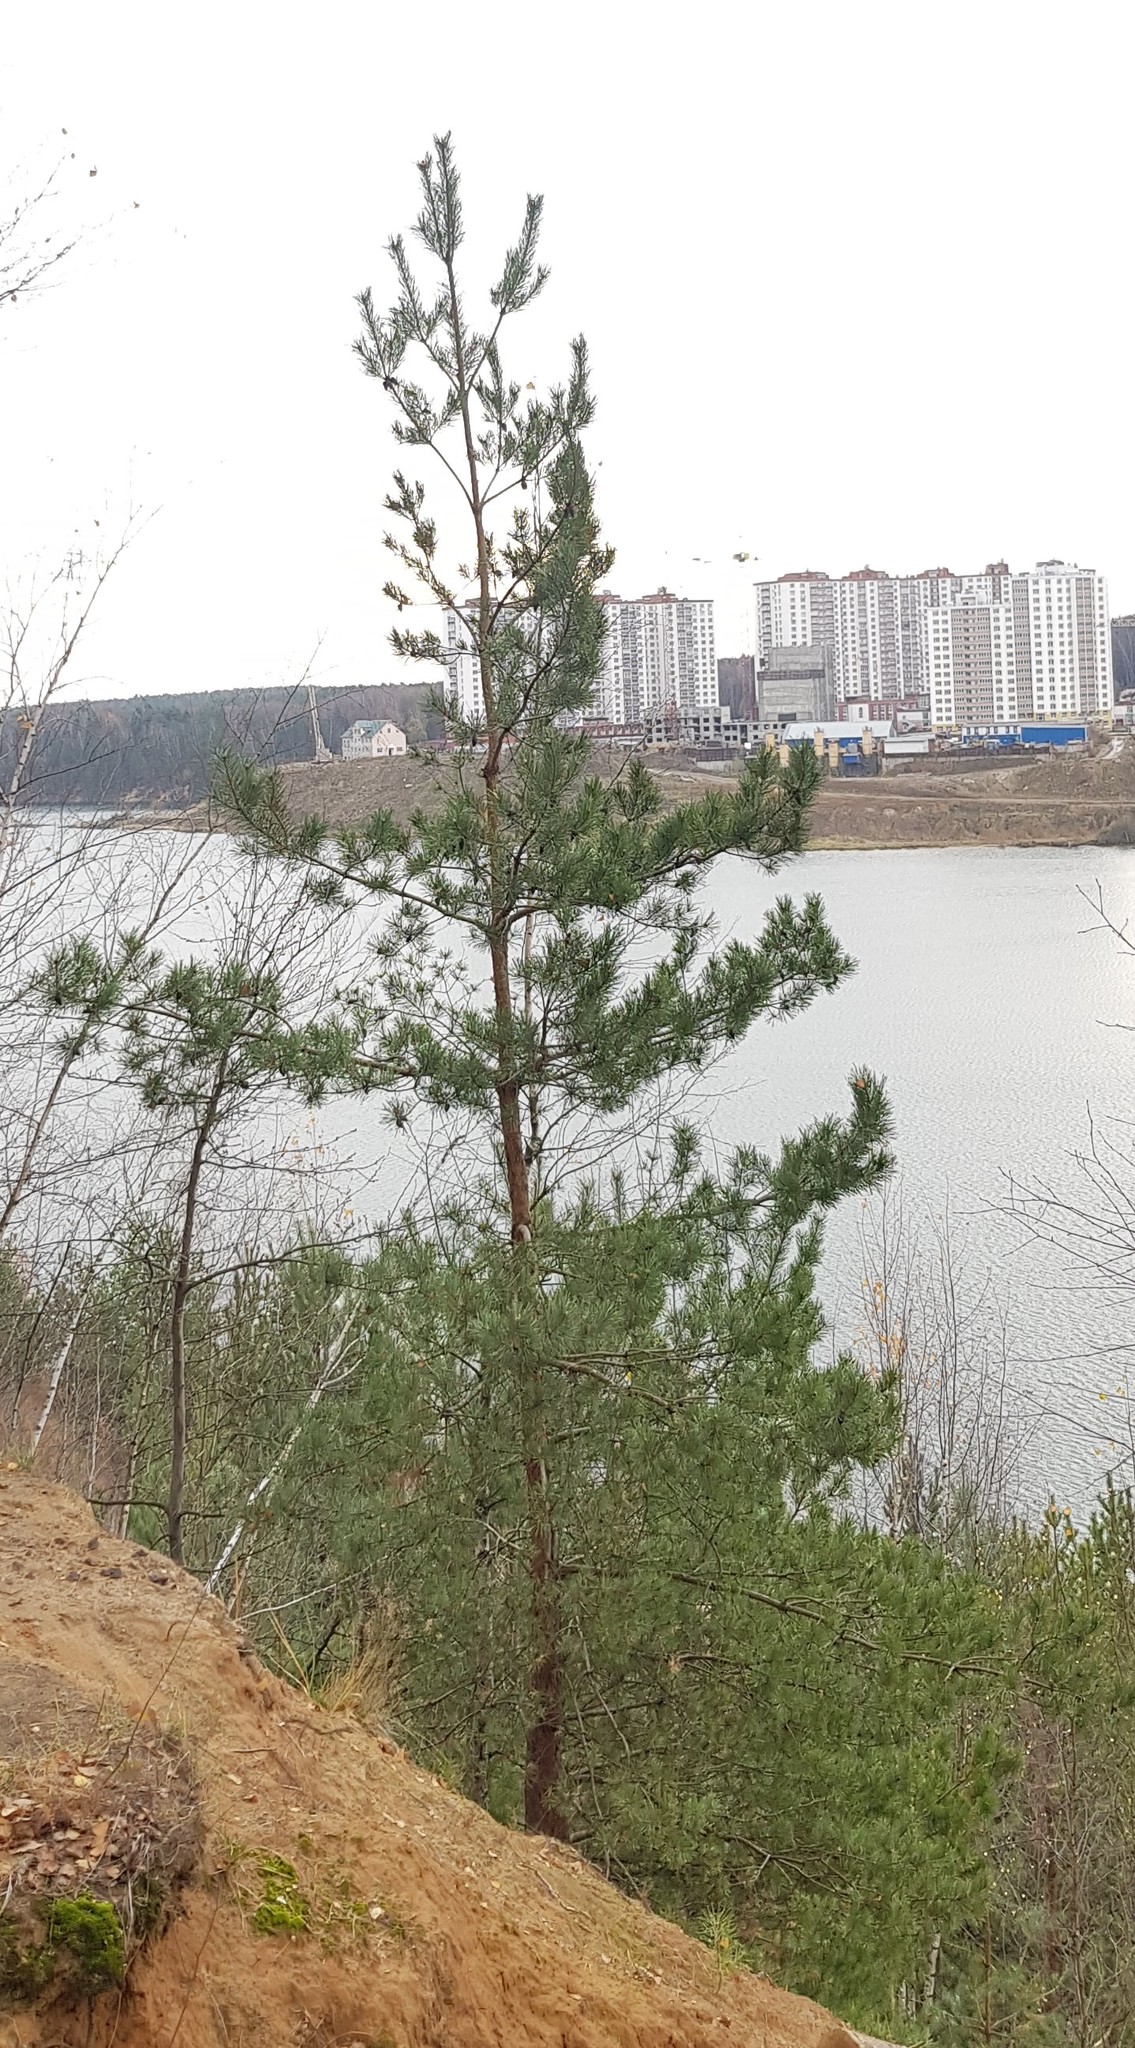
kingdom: Plantae
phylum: Tracheophyta
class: Pinopsida
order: Pinales
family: Pinaceae
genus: Pinus
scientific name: Pinus sylvestris
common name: Scots pine
